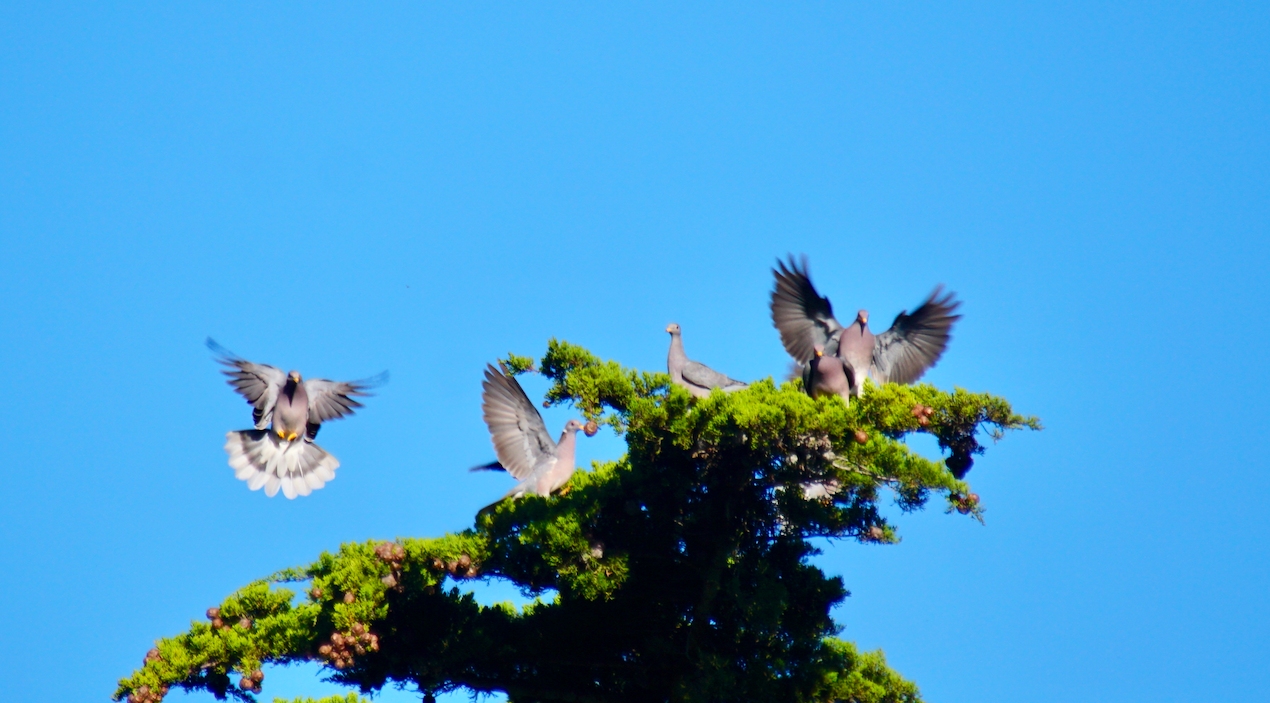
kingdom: Animalia
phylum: Chordata
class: Aves
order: Columbiformes
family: Columbidae
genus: Patagioenas
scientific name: Patagioenas fasciata
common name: Band-tailed pigeon
